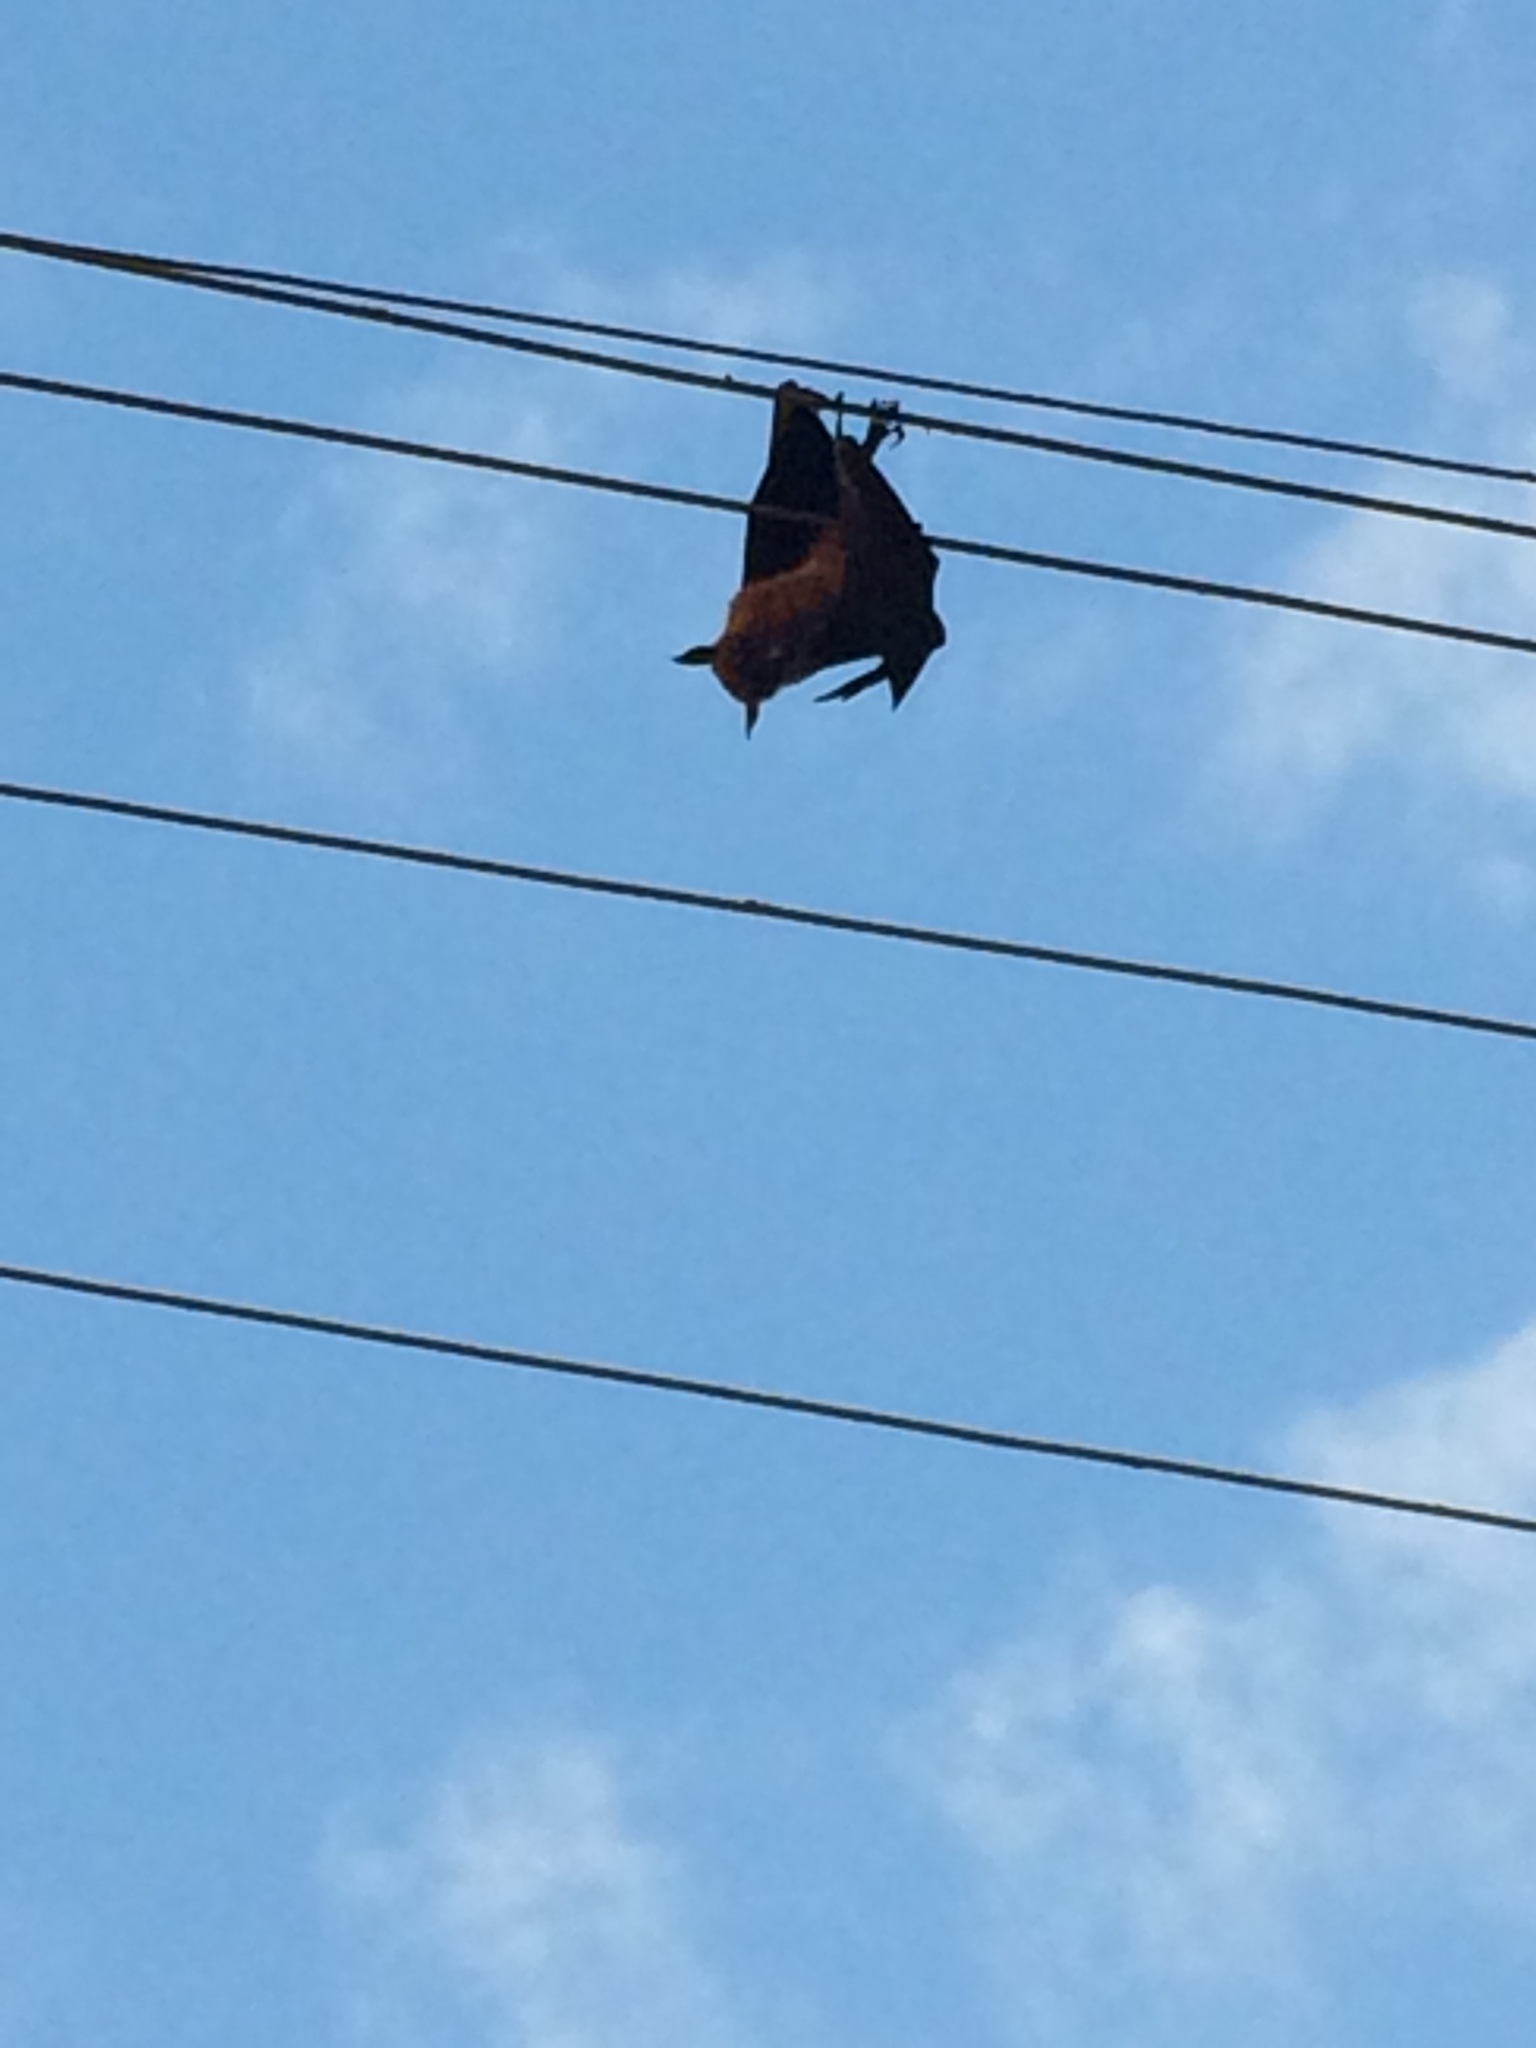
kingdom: Animalia
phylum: Chordata
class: Mammalia
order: Chiroptera
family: Pteropodidae
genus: Pteropus
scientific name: Pteropus vampyrus
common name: Large flying fox
